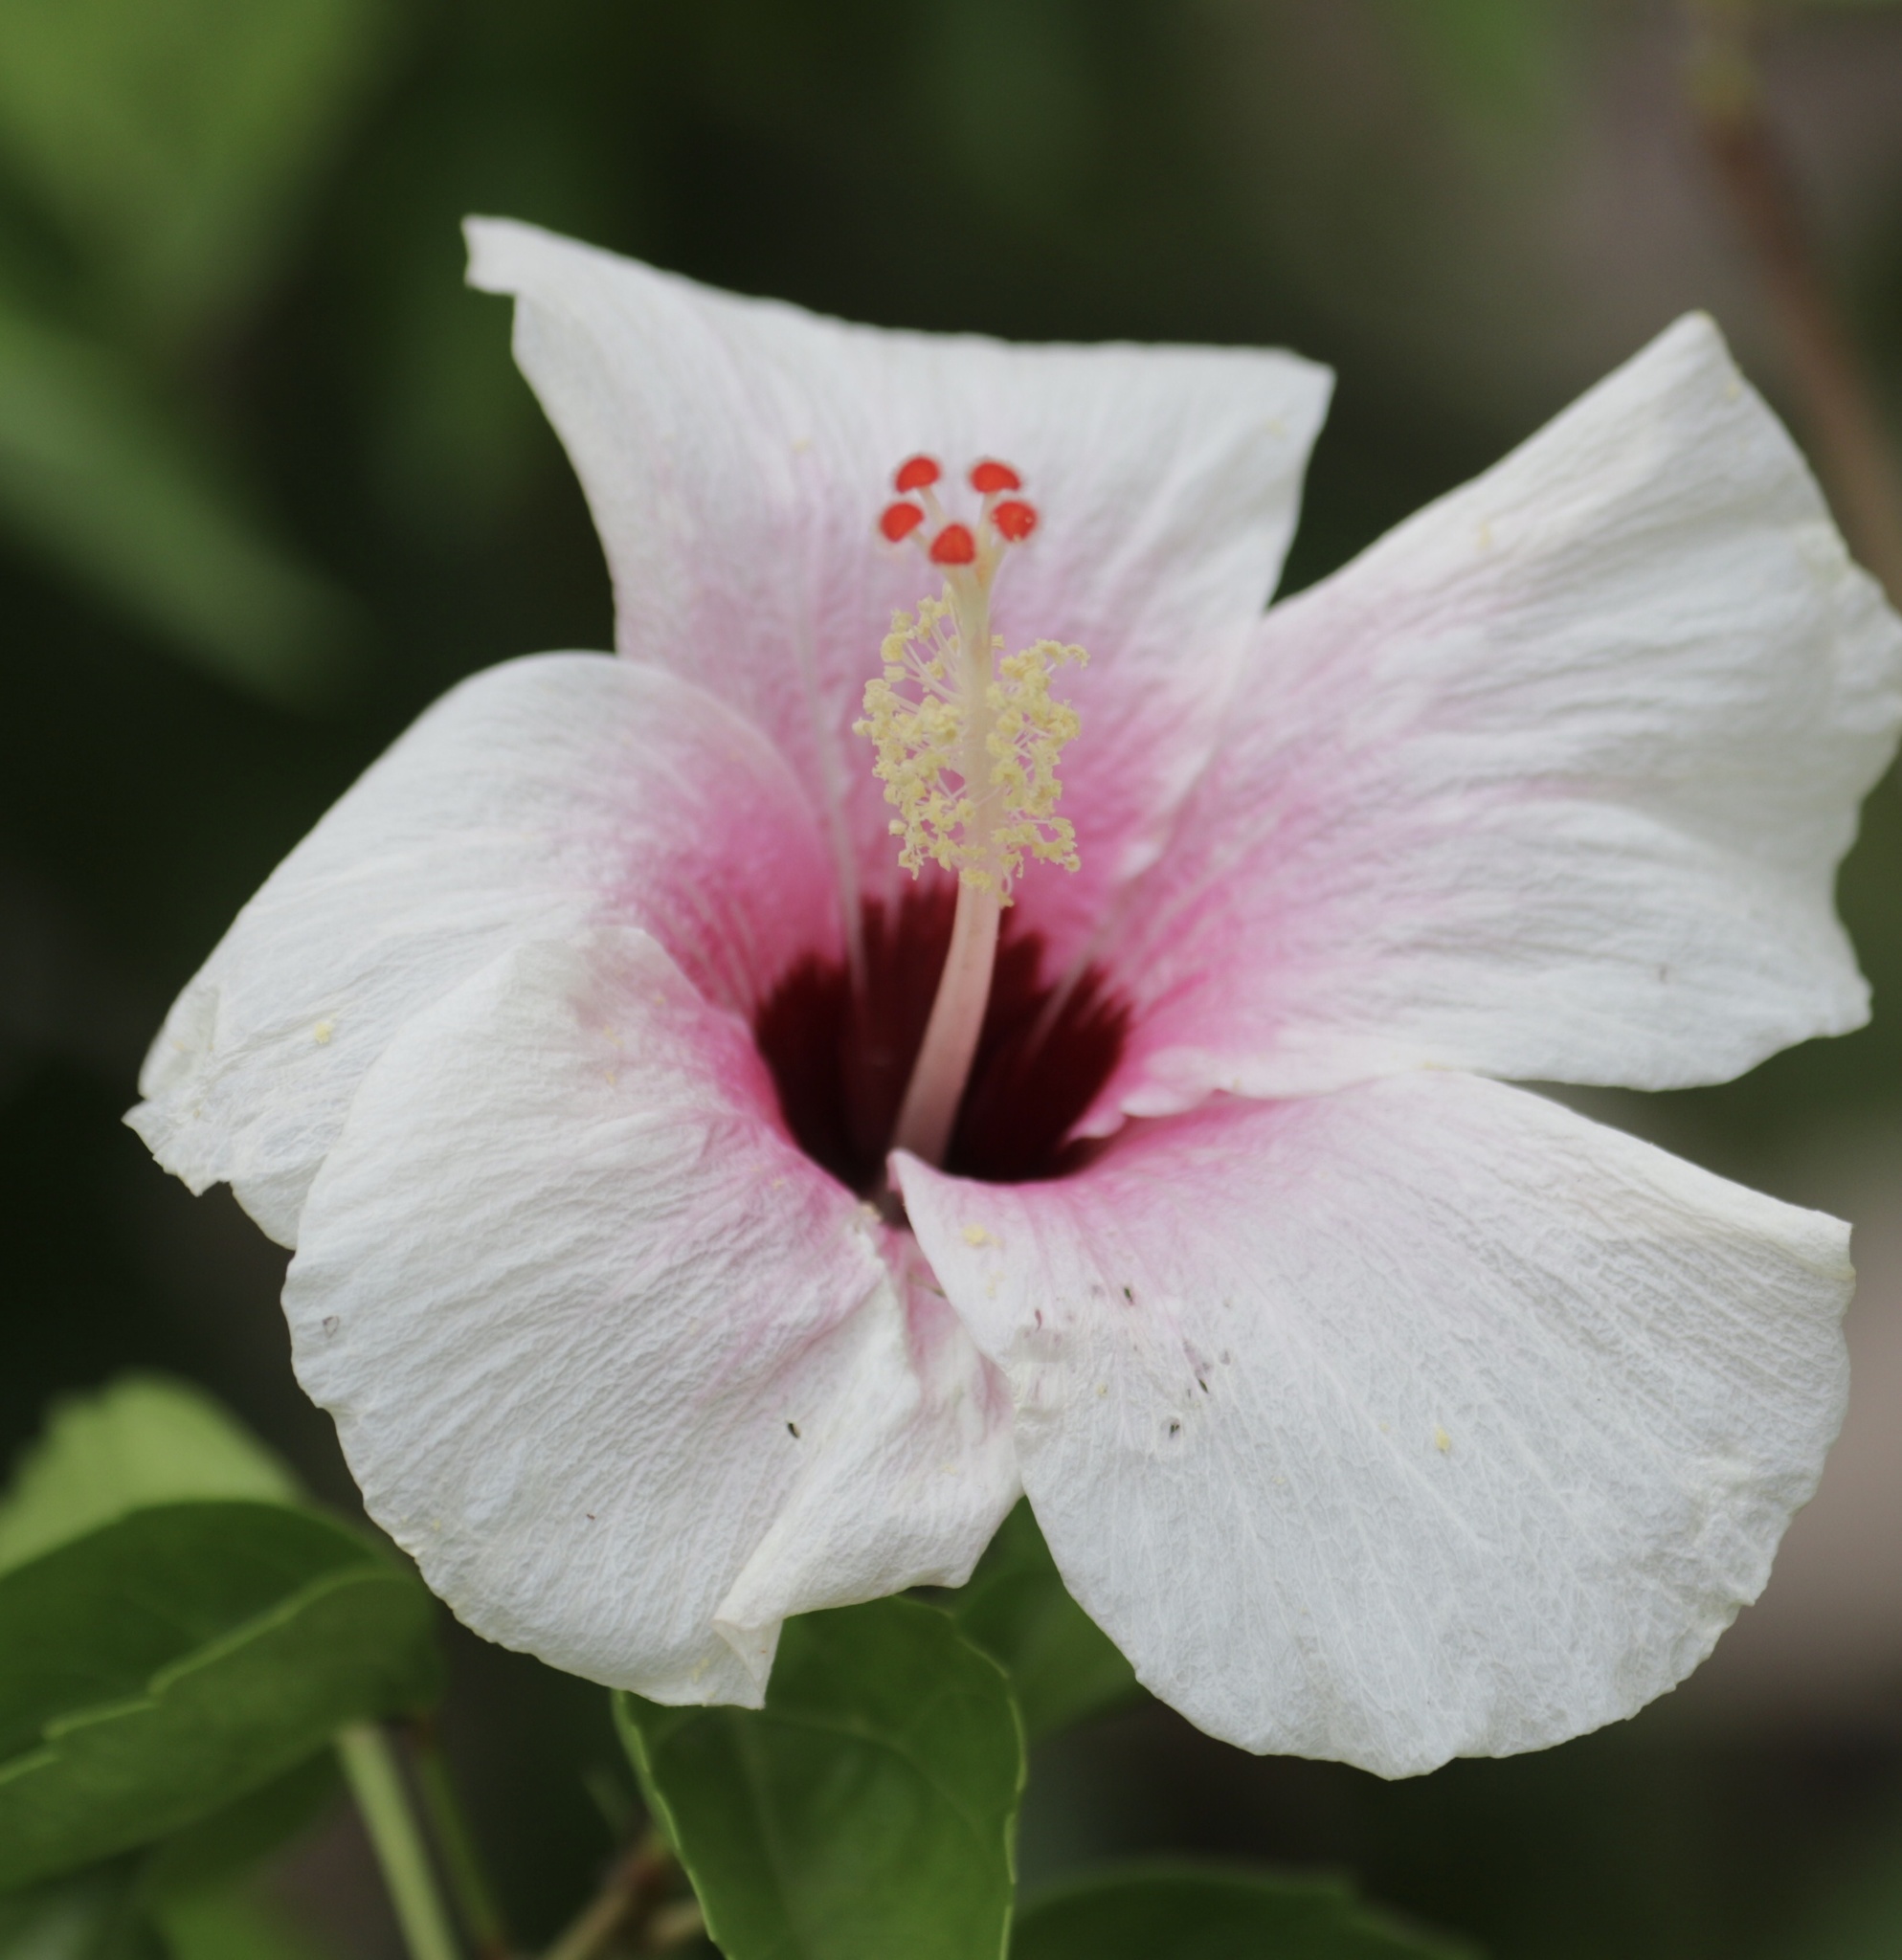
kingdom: Plantae
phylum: Tracheophyta
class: Magnoliopsida
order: Malvales
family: Malvaceae
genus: Hibiscus
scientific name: Hibiscus rosa-sinensis
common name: Hibiscus
